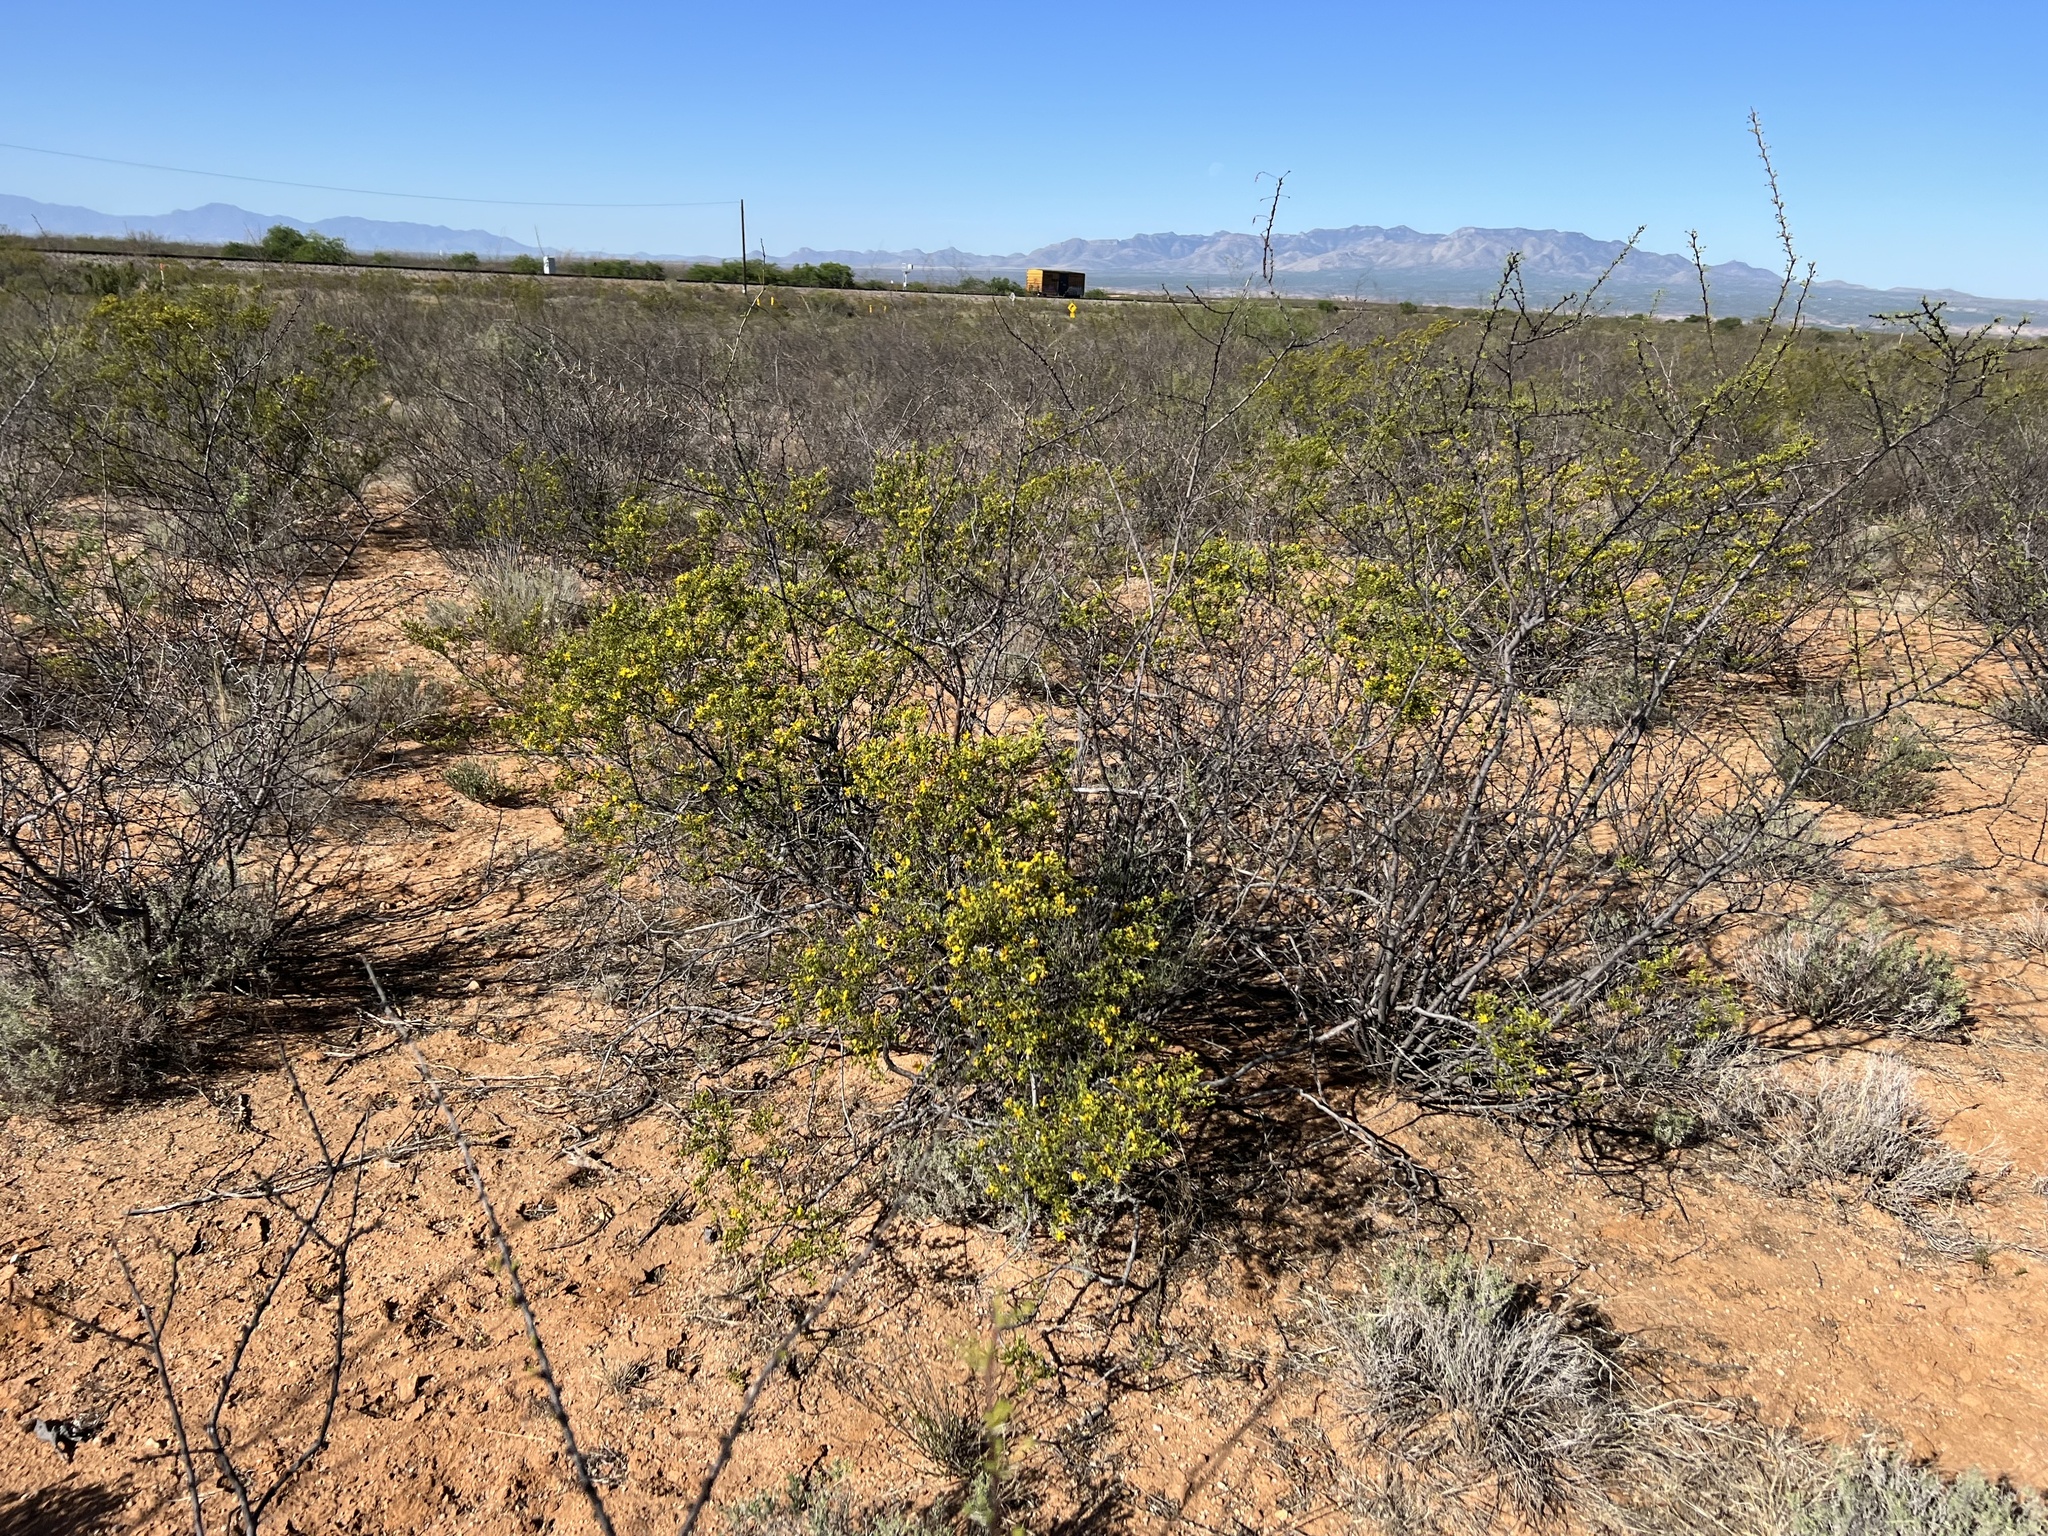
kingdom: Plantae
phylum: Tracheophyta
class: Magnoliopsida
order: Zygophyllales
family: Zygophyllaceae
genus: Larrea
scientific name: Larrea tridentata
